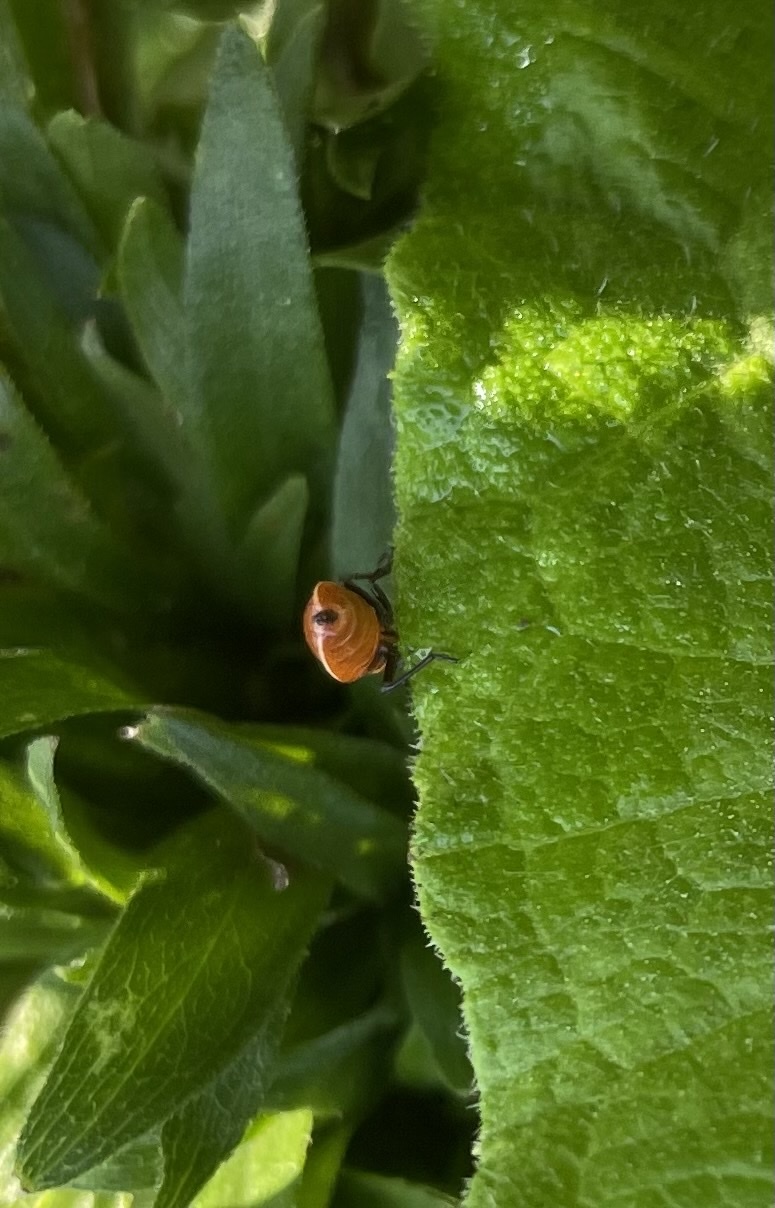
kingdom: Animalia
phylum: Arthropoda
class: Insecta
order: Hemiptera
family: Lygaeidae
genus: Lygaeus
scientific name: Lygaeus turcicus
